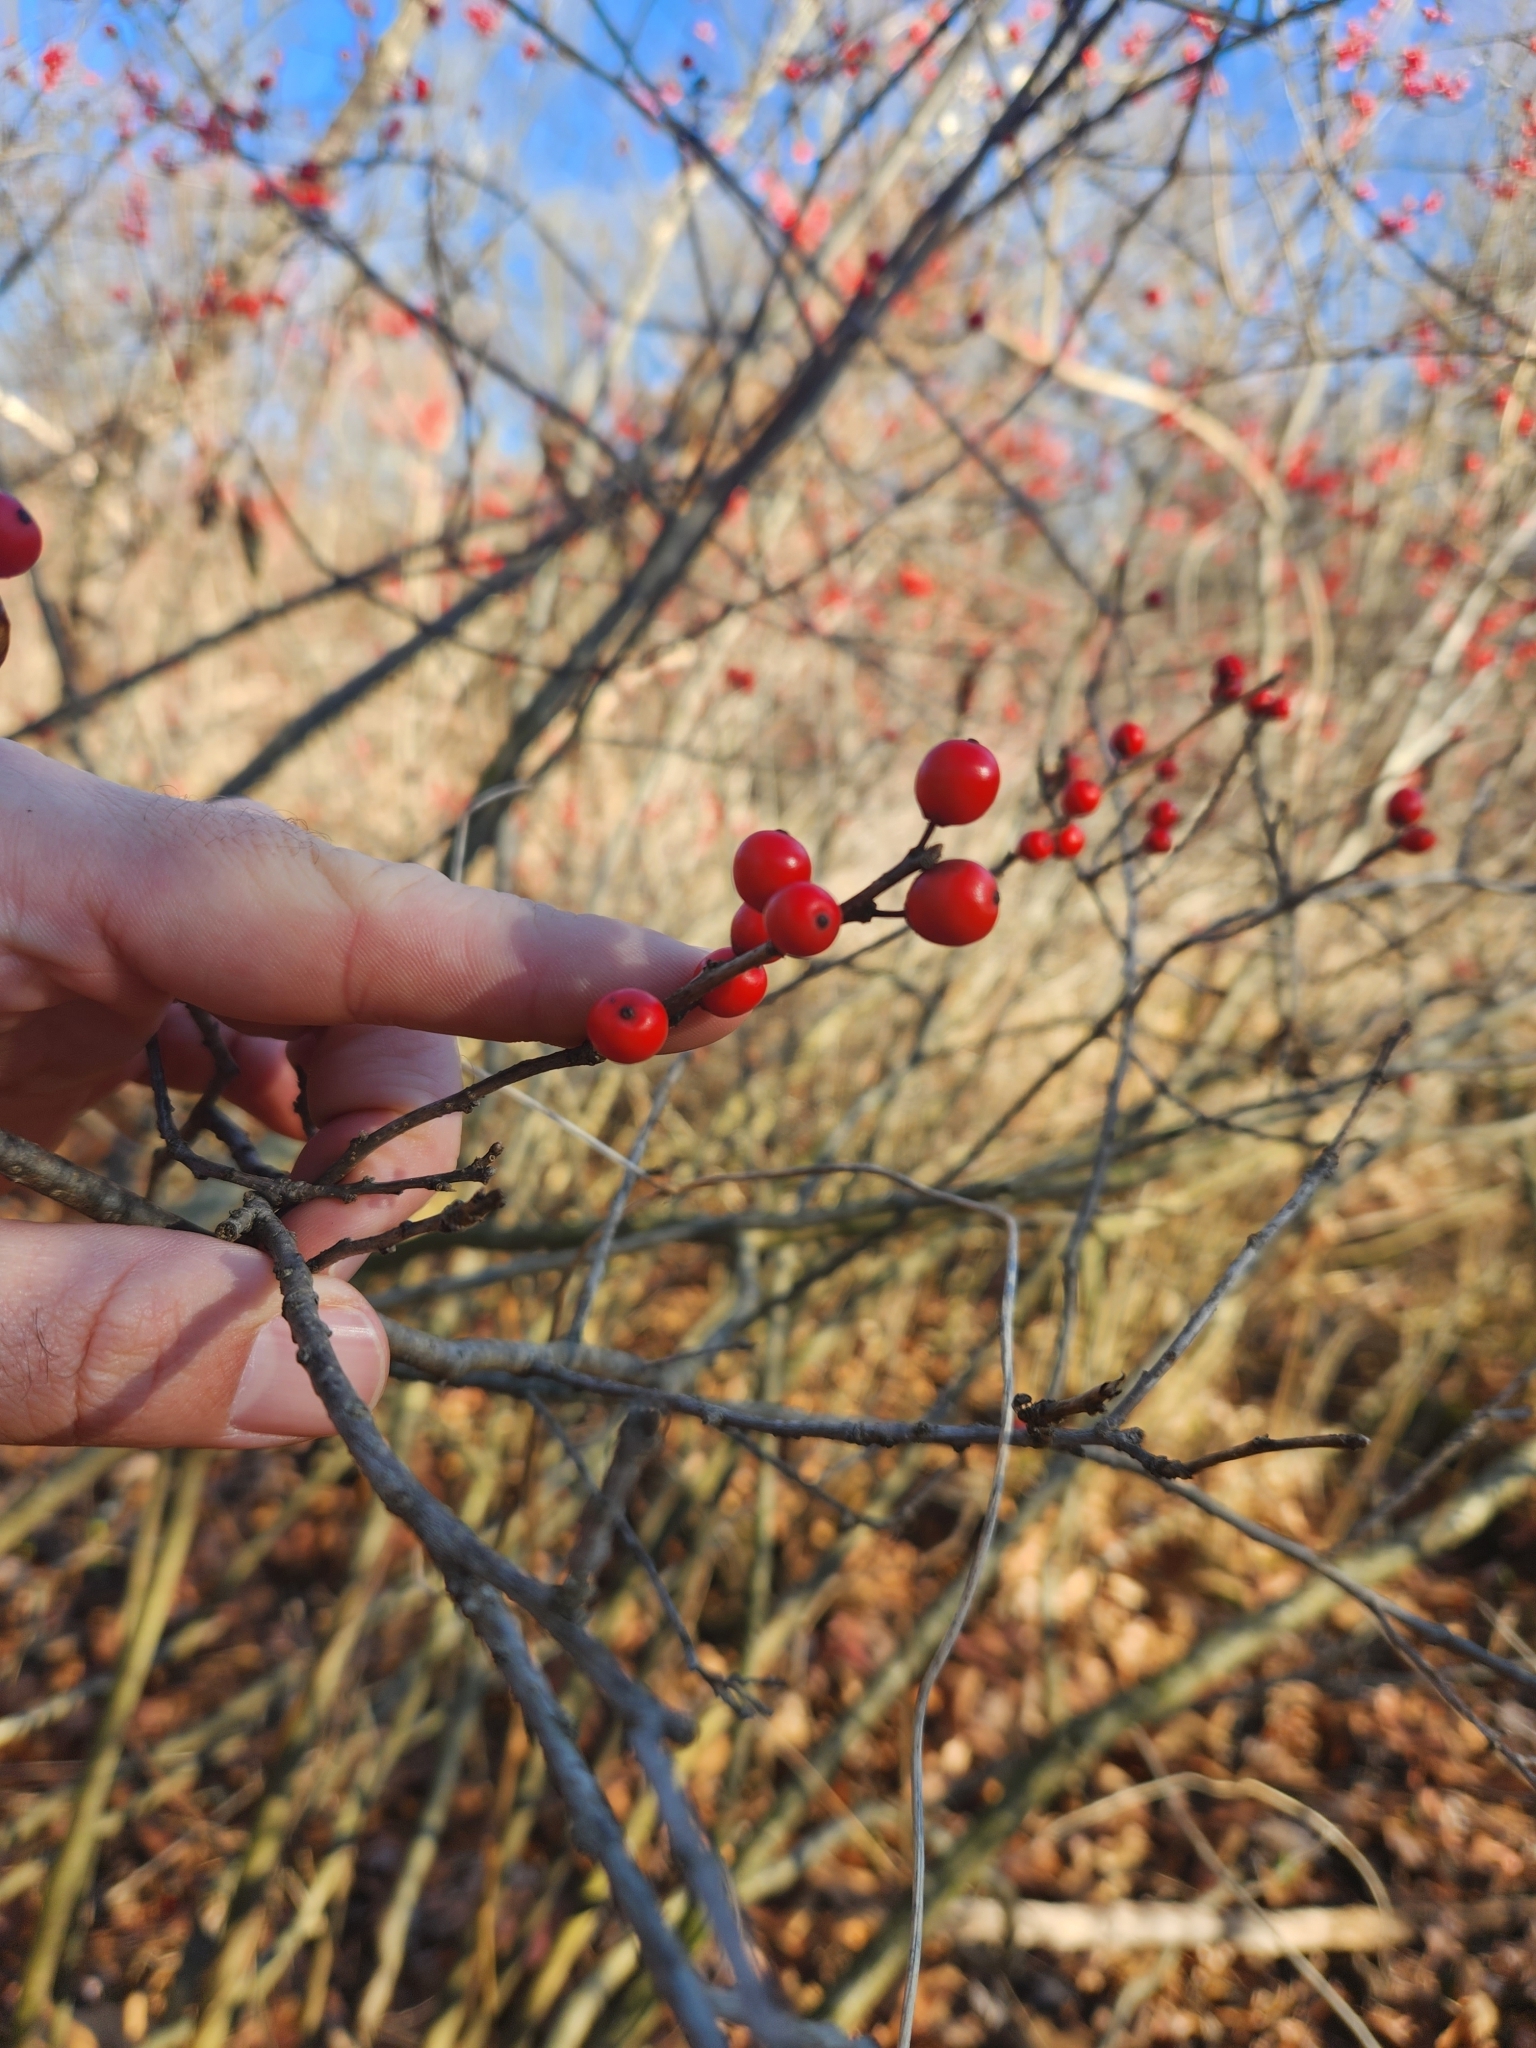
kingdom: Plantae
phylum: Tracheophyta
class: Magnoliopsida
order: Aquifoliales
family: Aquifoliaceae
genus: Ilex
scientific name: Ilex verticillata
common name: Virginia winterberry
